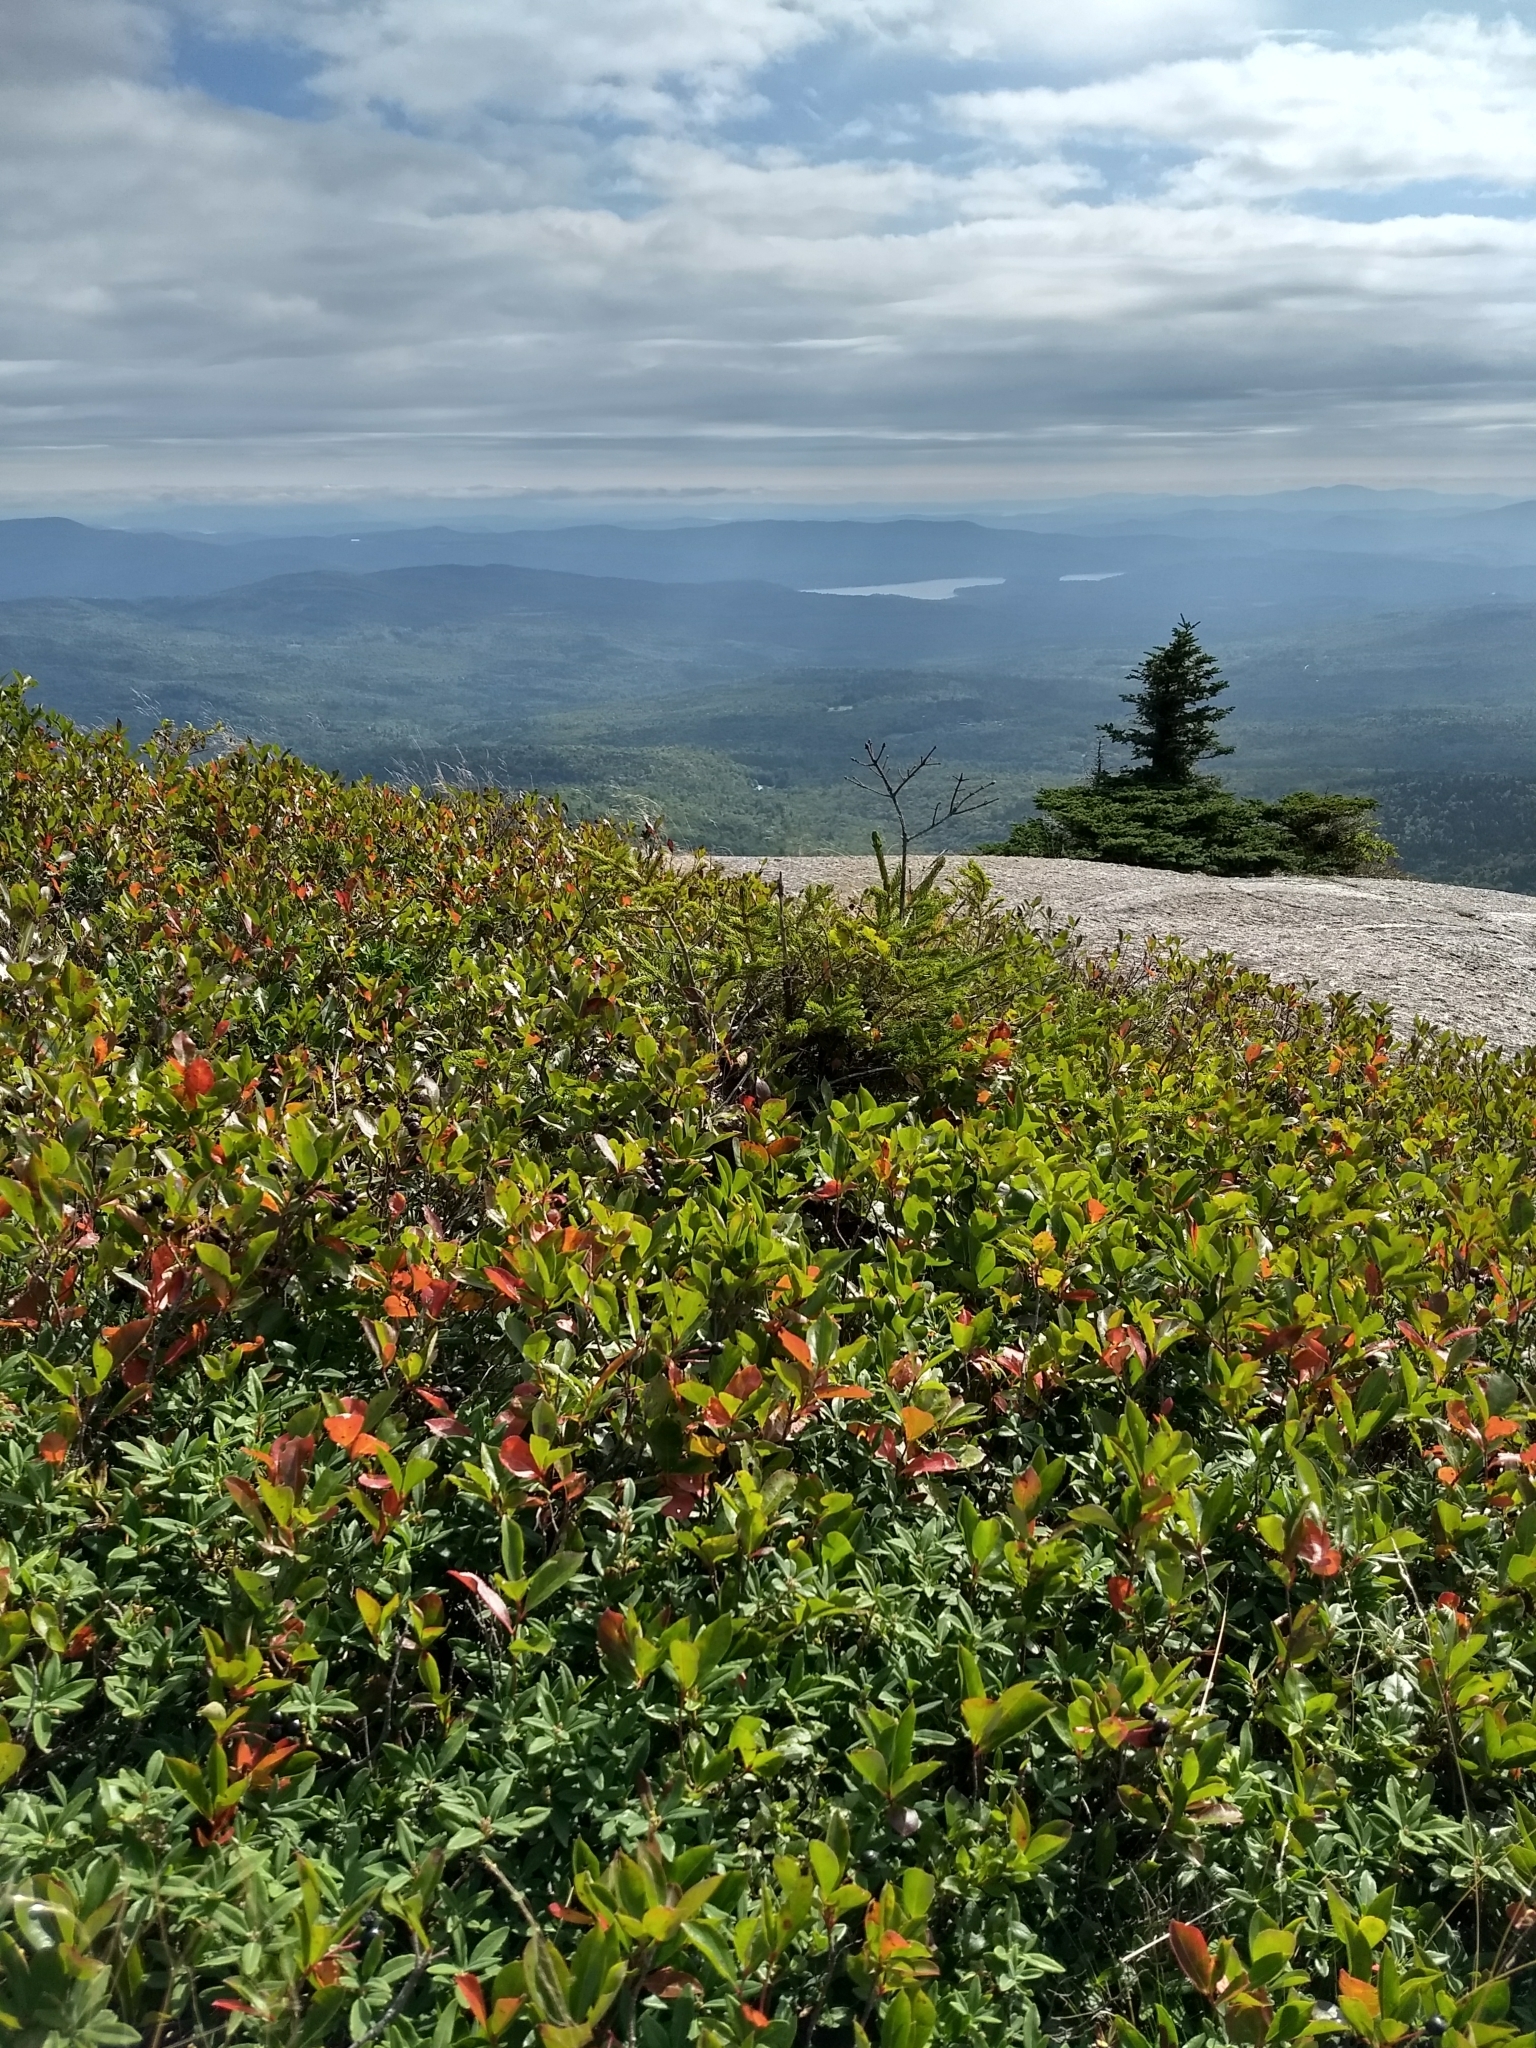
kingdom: Plantae
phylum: Tracheophyta
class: Magnoliopsida
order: Rosales
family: Rosaceae
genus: Aronia
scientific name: Aronia melanocarpa
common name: Black chokeberry
